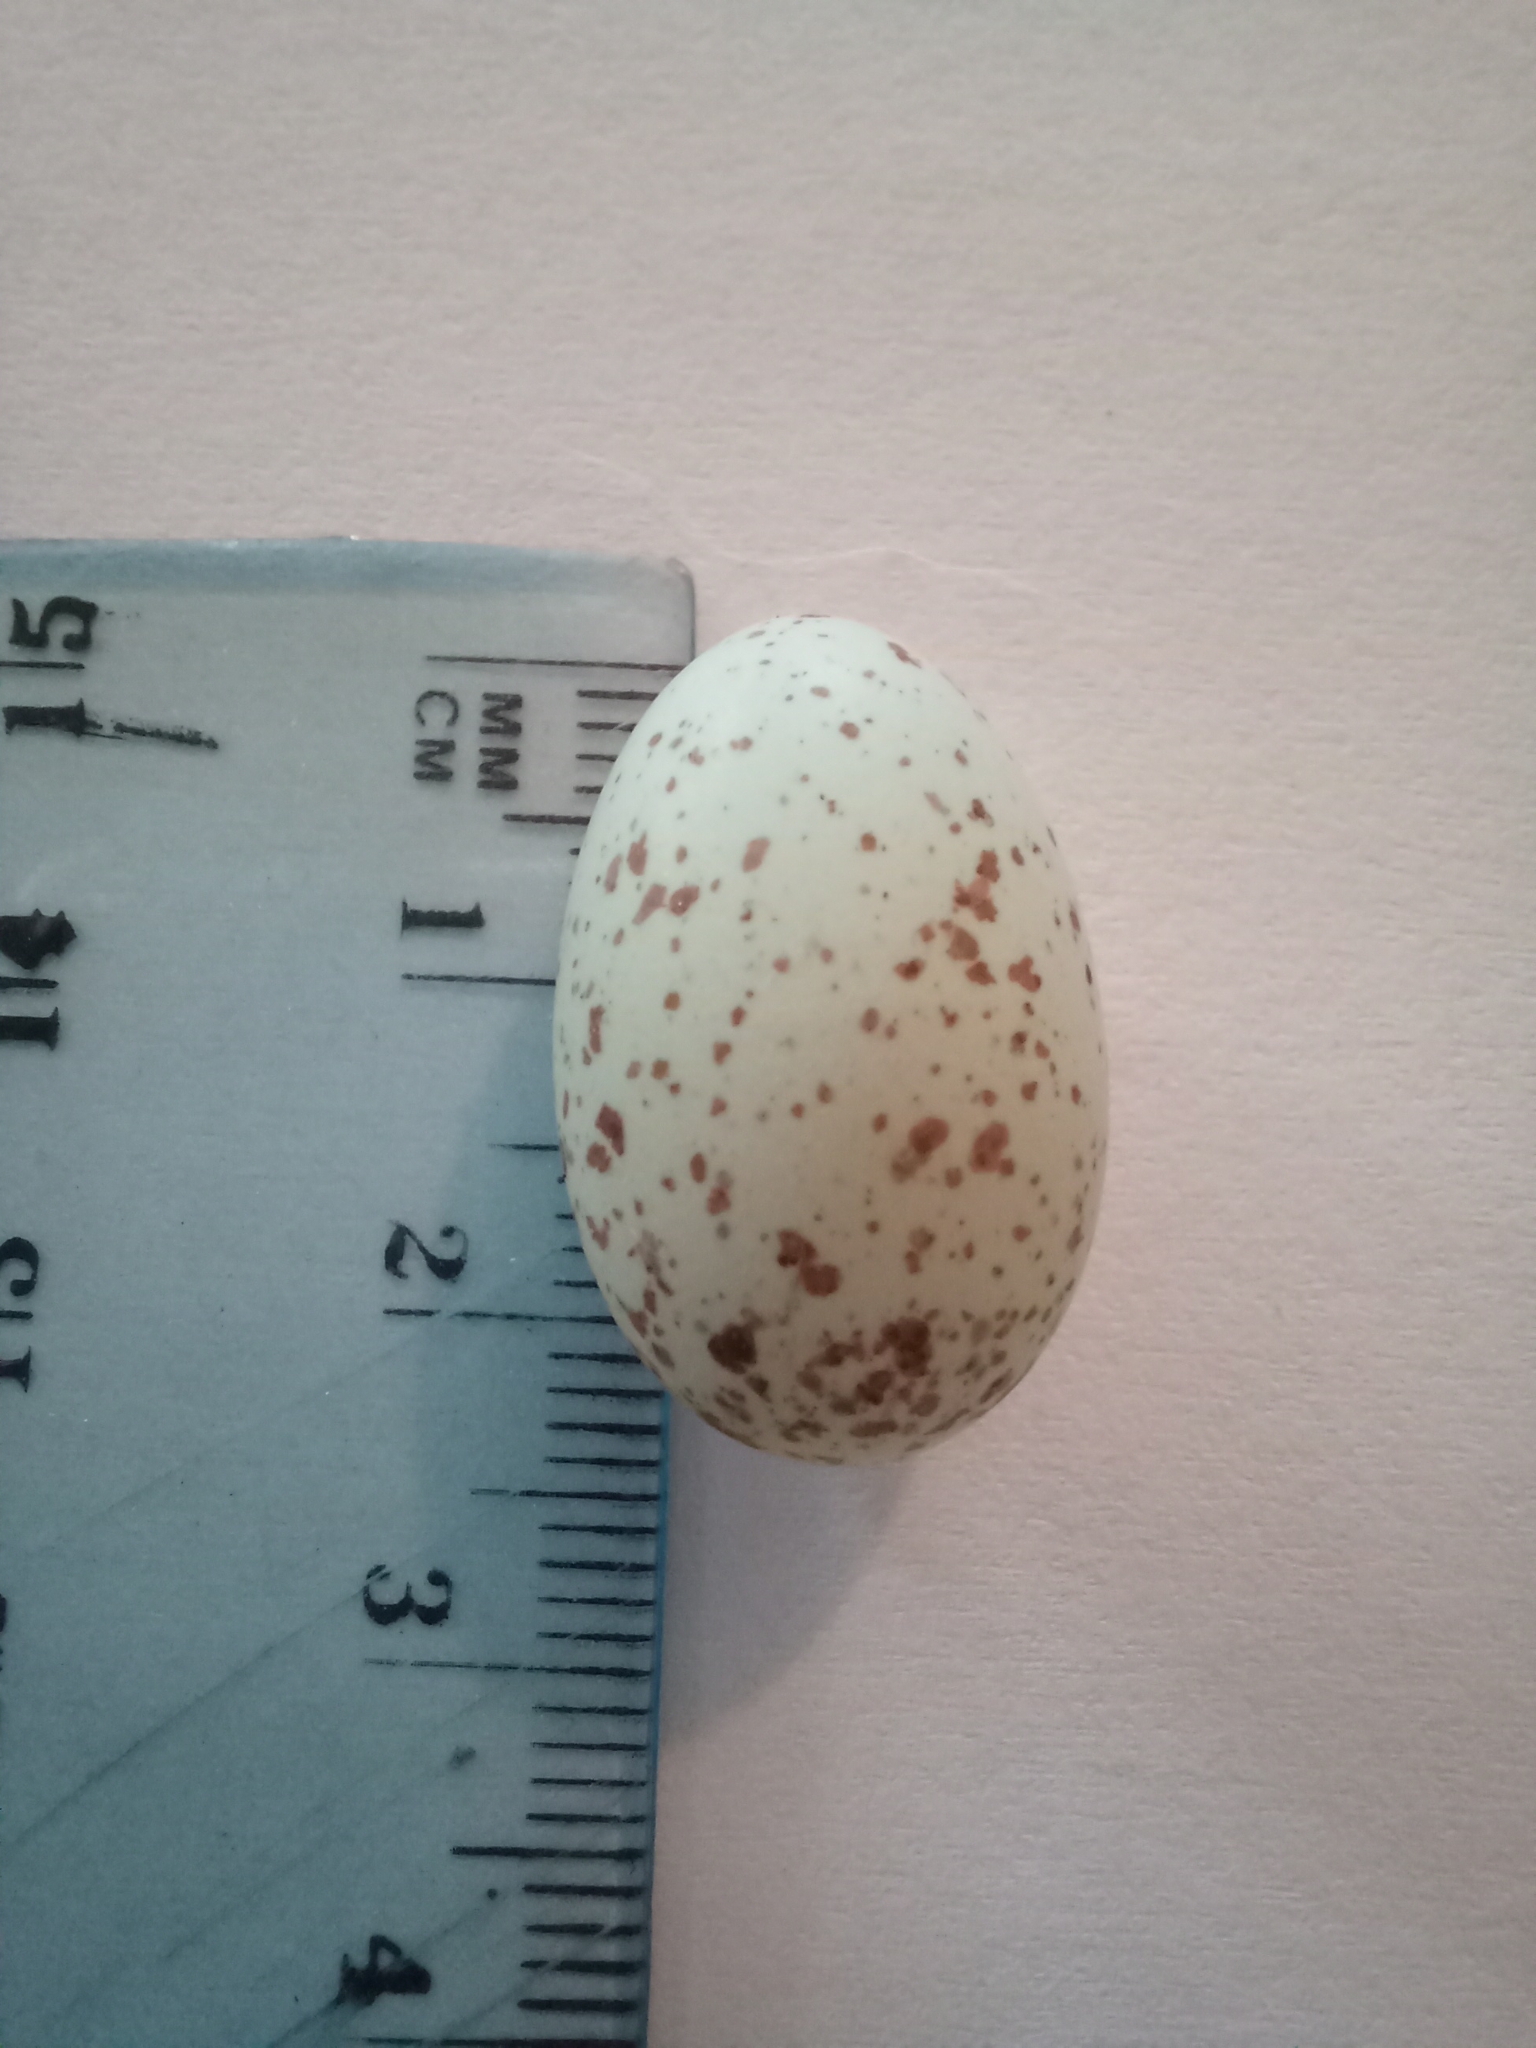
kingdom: Animalia
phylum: Chordata
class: Aves
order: Cuculiformes
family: Cuculidae
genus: Chrysococcyx
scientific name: Chrysococcyx caprius
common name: Diederik cuckoo
